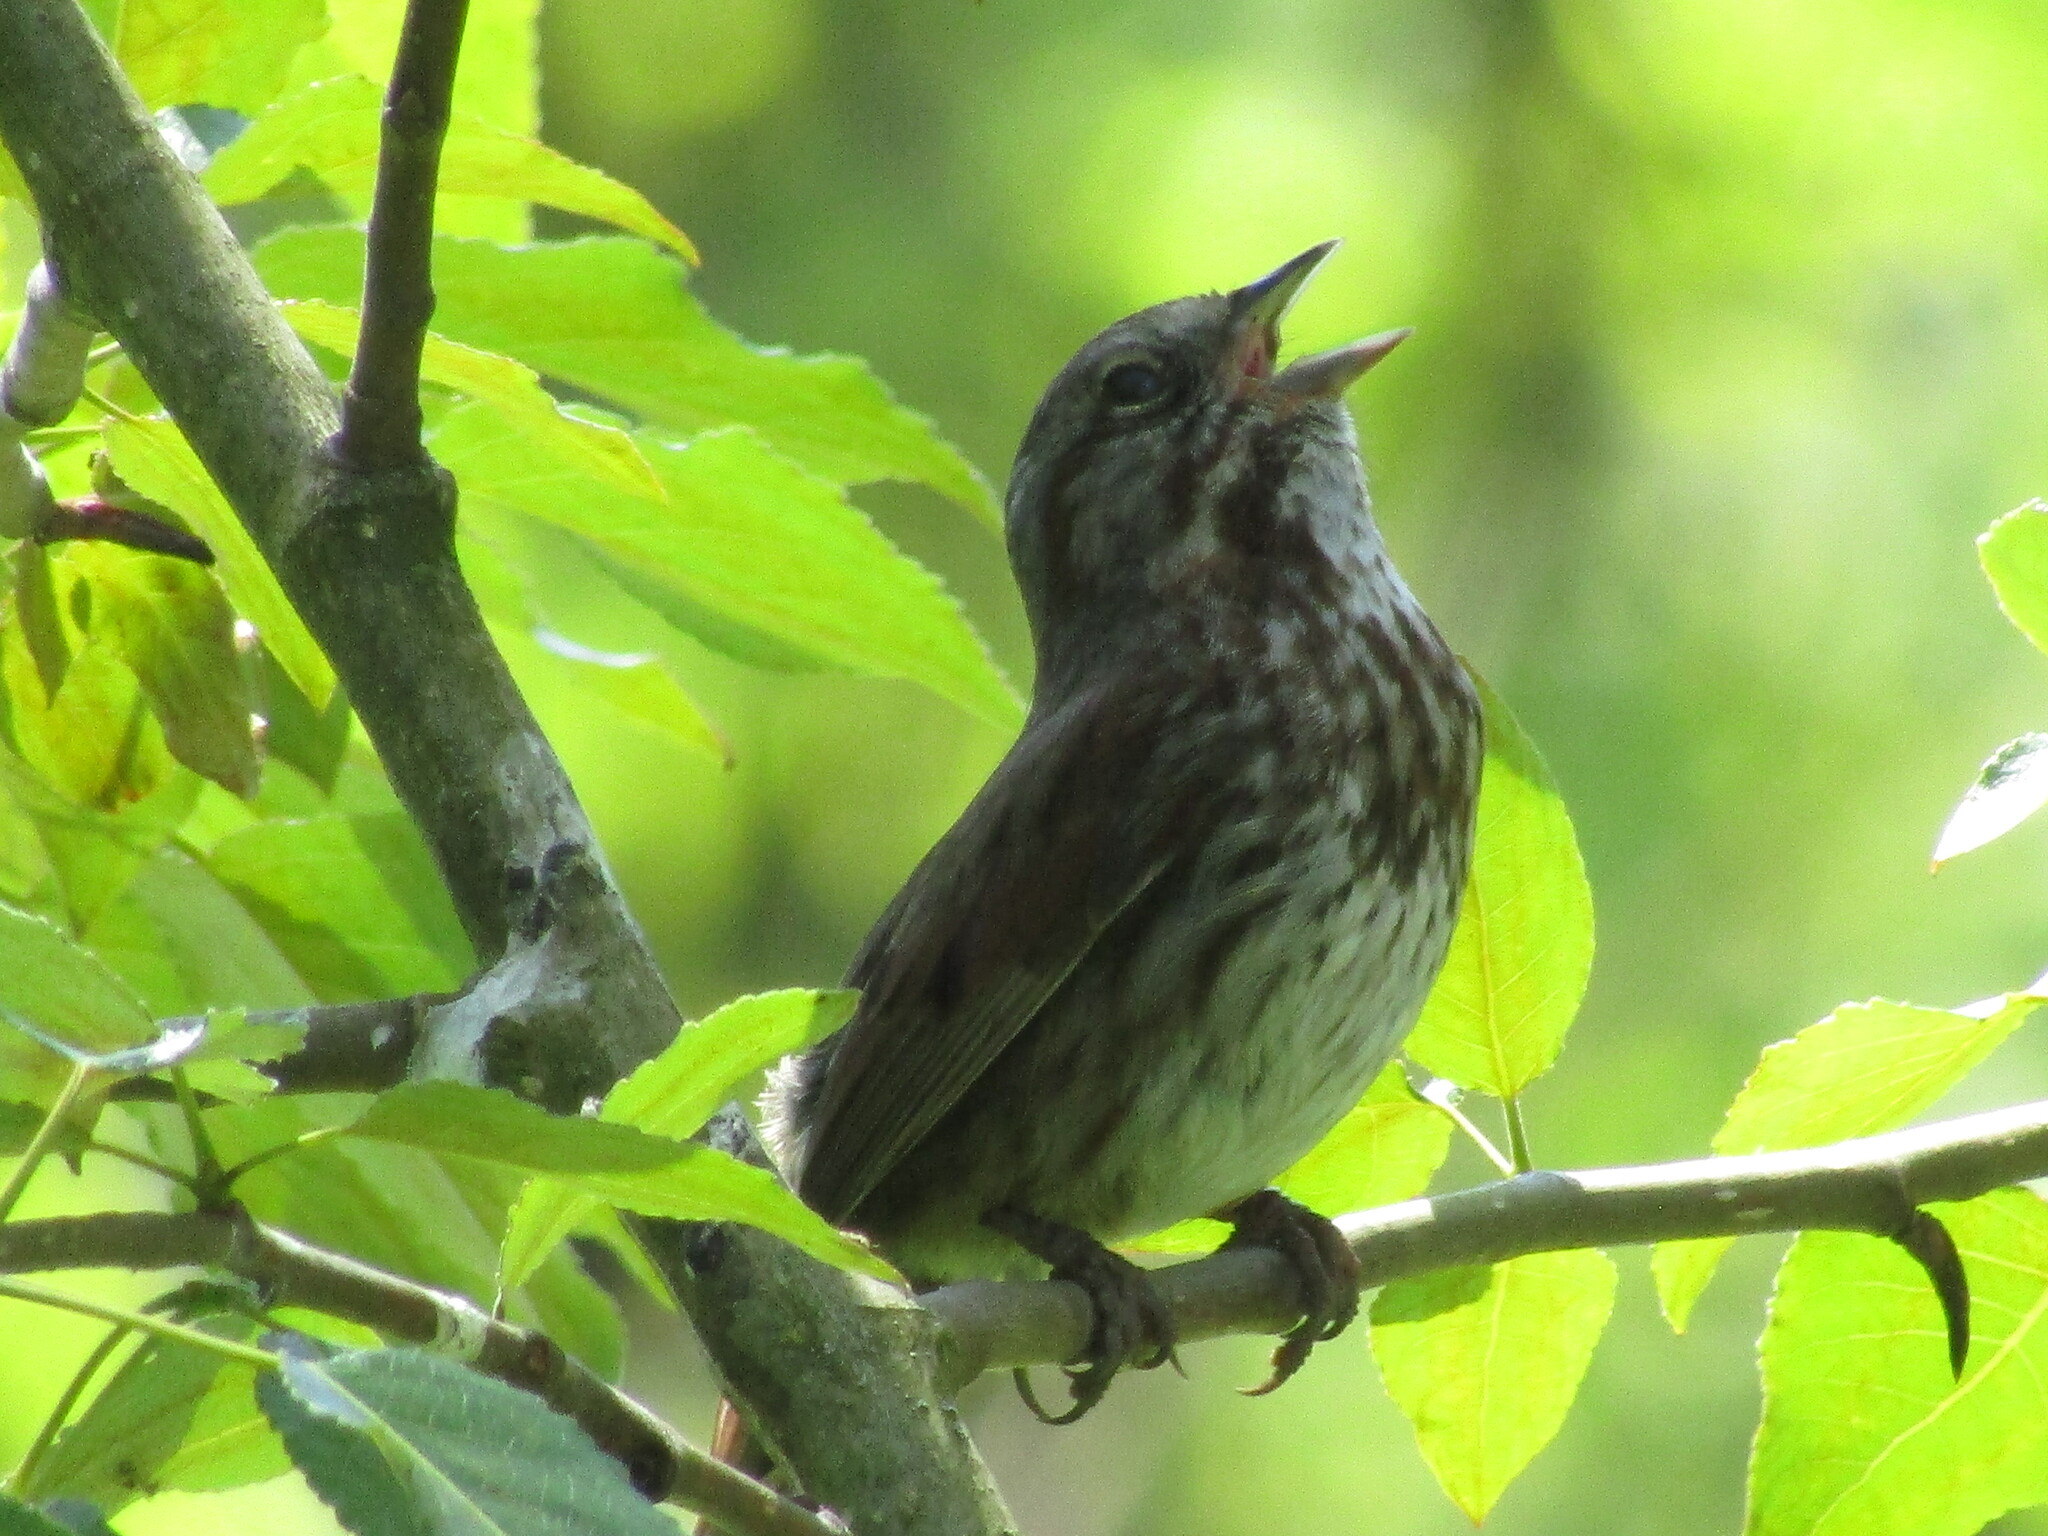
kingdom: Animalia
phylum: Chordata
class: Aves
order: Passeriformes
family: Passerellidae
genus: Melospiza
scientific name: Melospiza melodia
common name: Song sparrow
